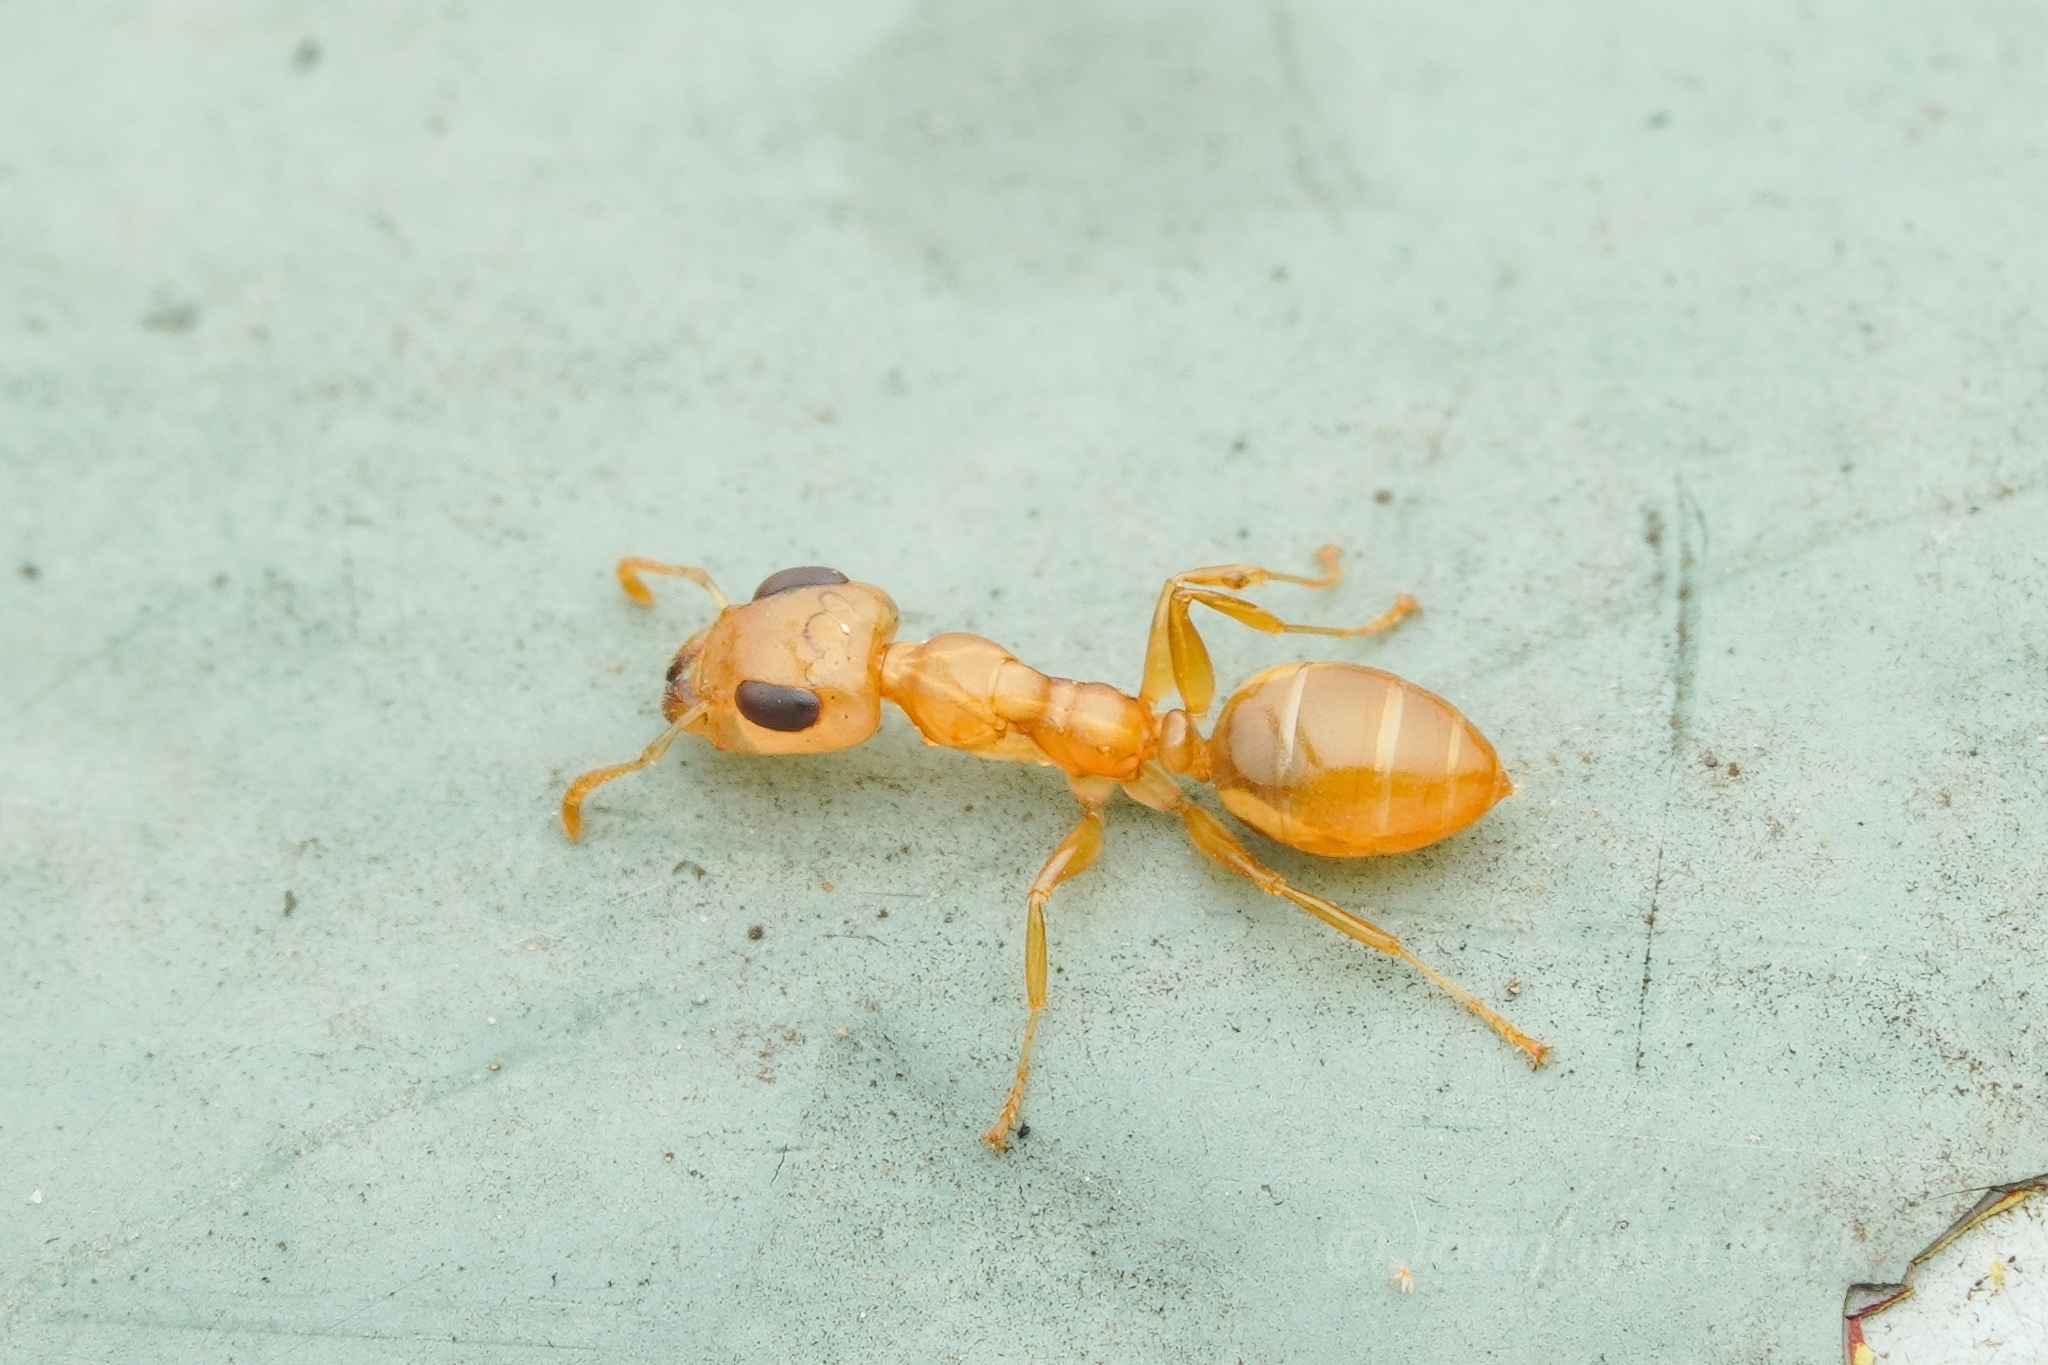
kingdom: Animalia
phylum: Arthropoda
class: Insecta
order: Hymenoptera
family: Formicidae
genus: Gesomyrmex
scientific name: Gesomyrmex howardi
